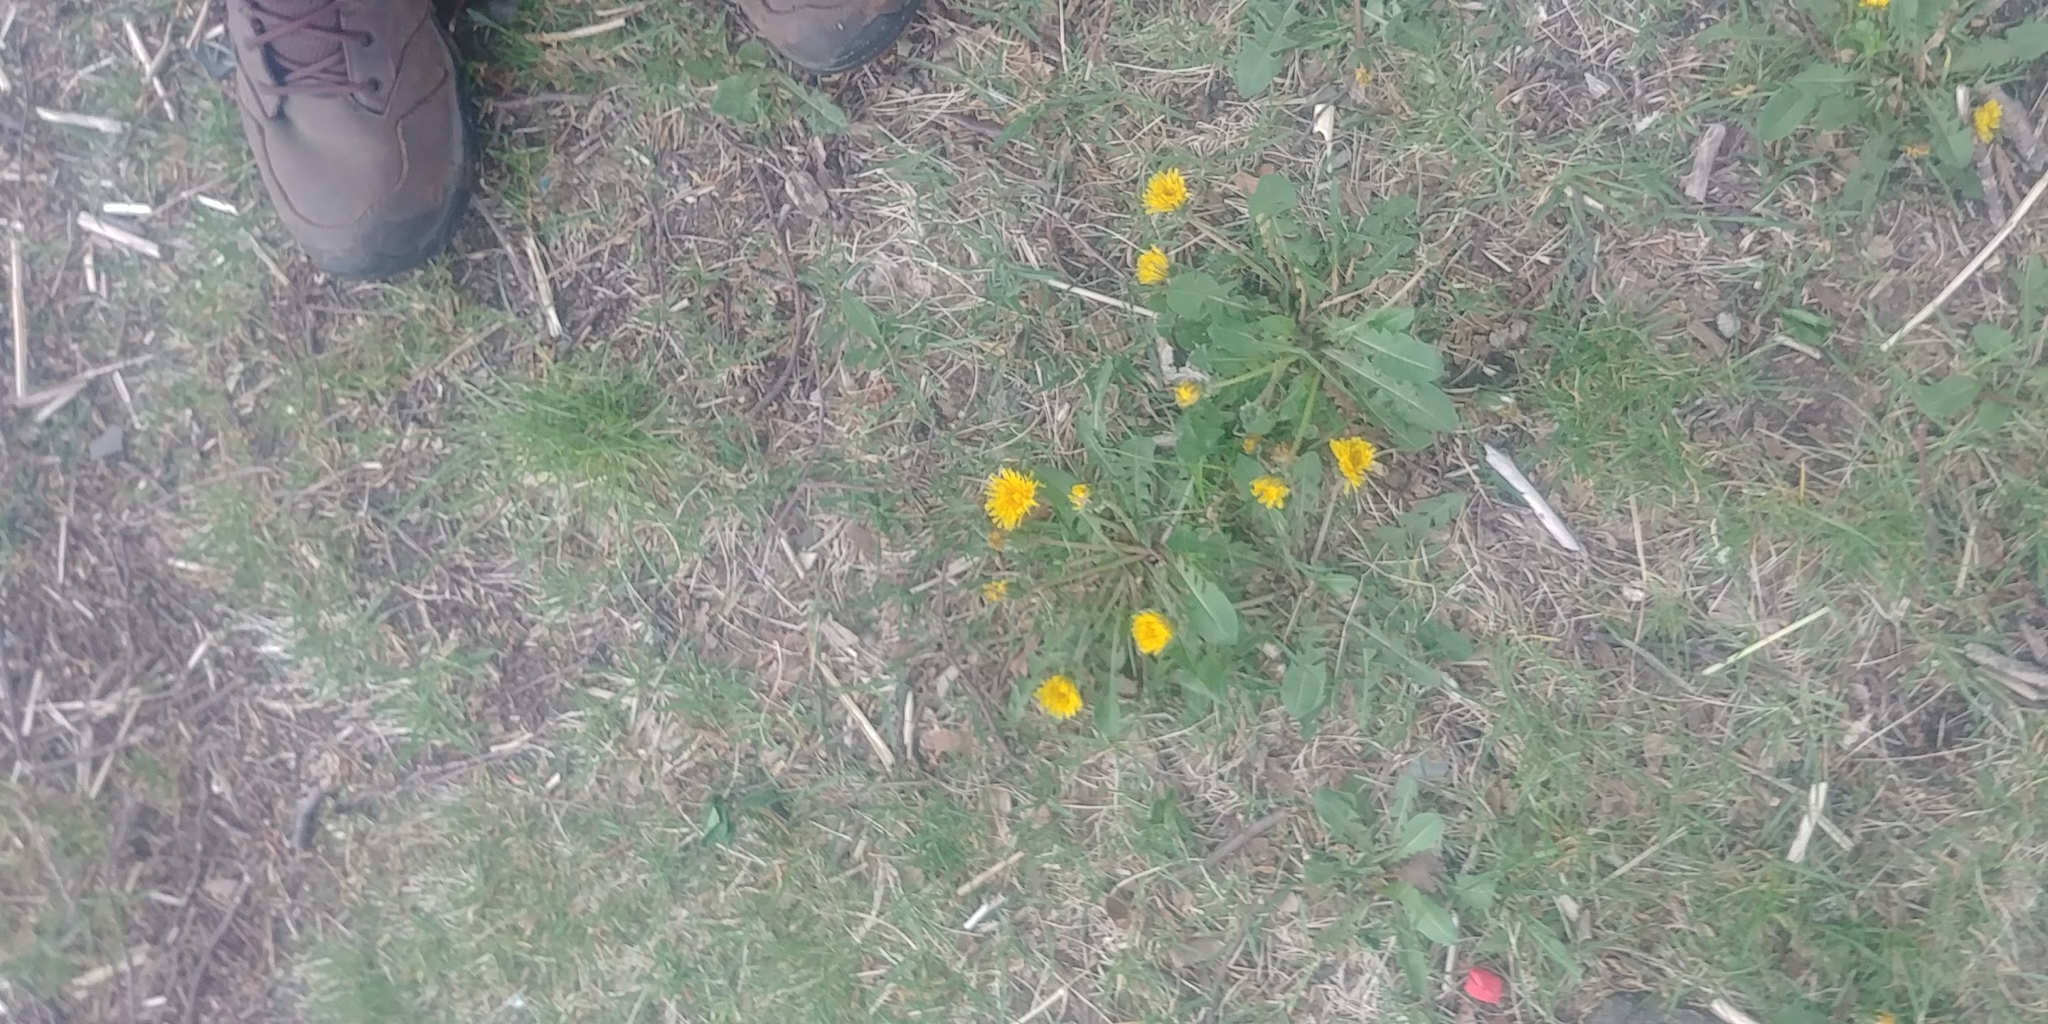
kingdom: Plantae
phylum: Tracheophyta
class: Magnoliopsida
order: Asterales
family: Asteraceae
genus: Taraxacum
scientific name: Taraxacum officinale
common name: Common dandelion
